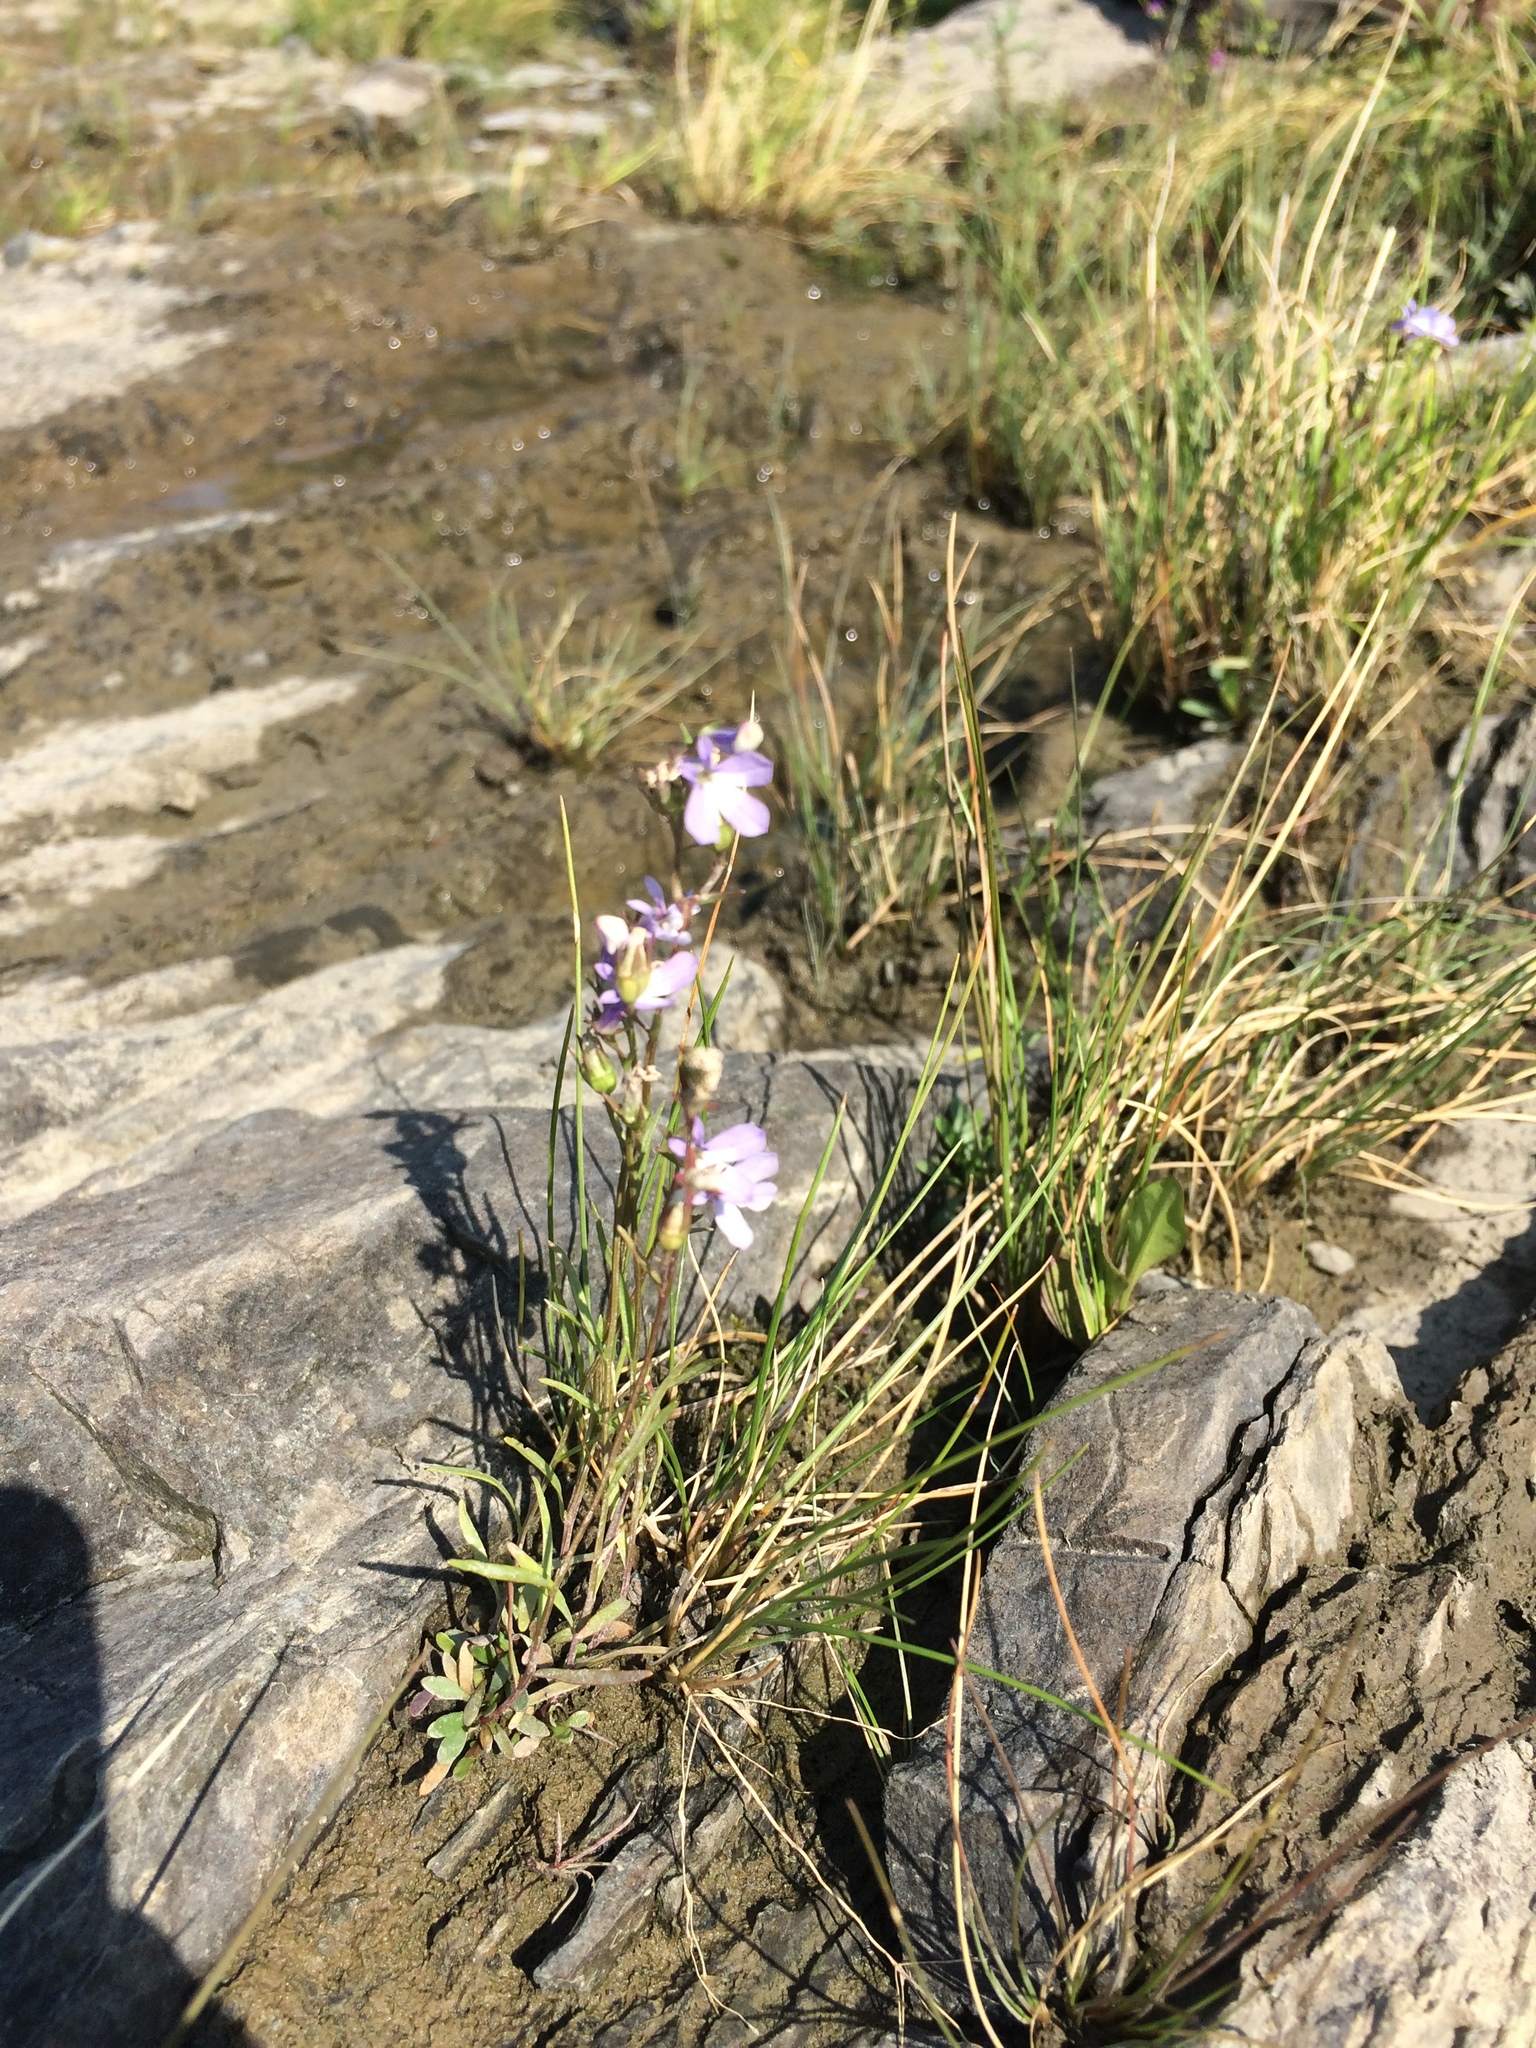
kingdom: Plantae
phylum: Tracheophyta
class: Magnoliopsida
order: Asterales
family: Campanulaceae
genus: Lobelia
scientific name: Lobelia kalmii
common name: Kalm's lobelia
